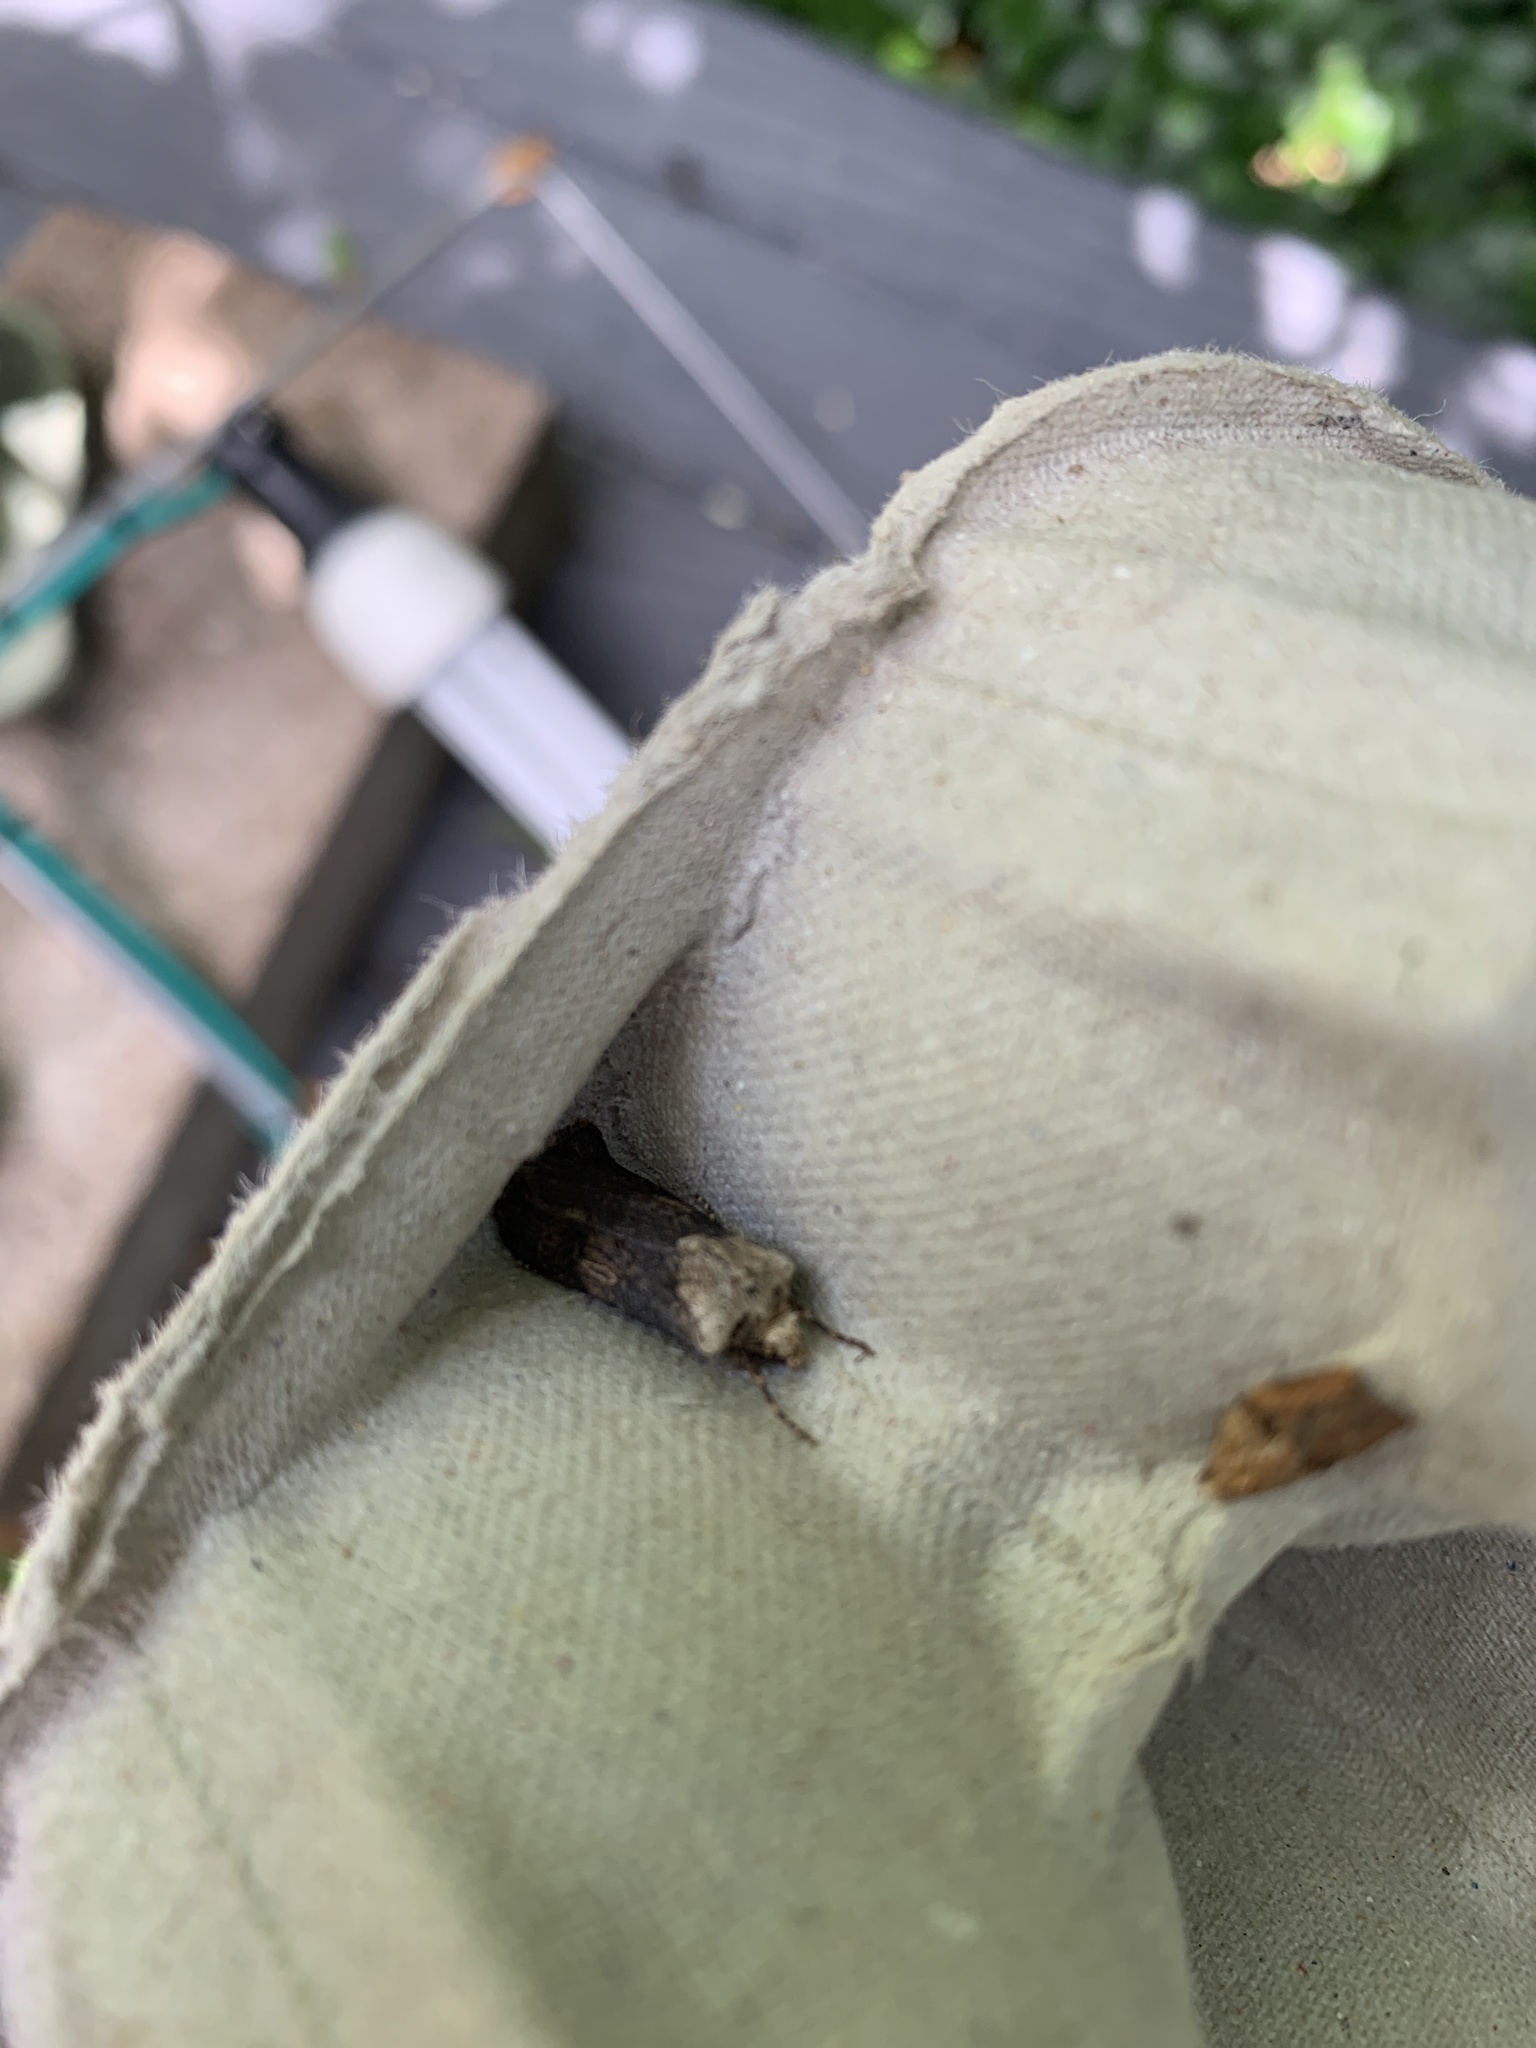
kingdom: Animalia
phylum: Arthropoda
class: Insecta
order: Lepidoptera
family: Noctuidae
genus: Agrotis
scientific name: Agrotis puta
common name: Shuttle-shaped dart
